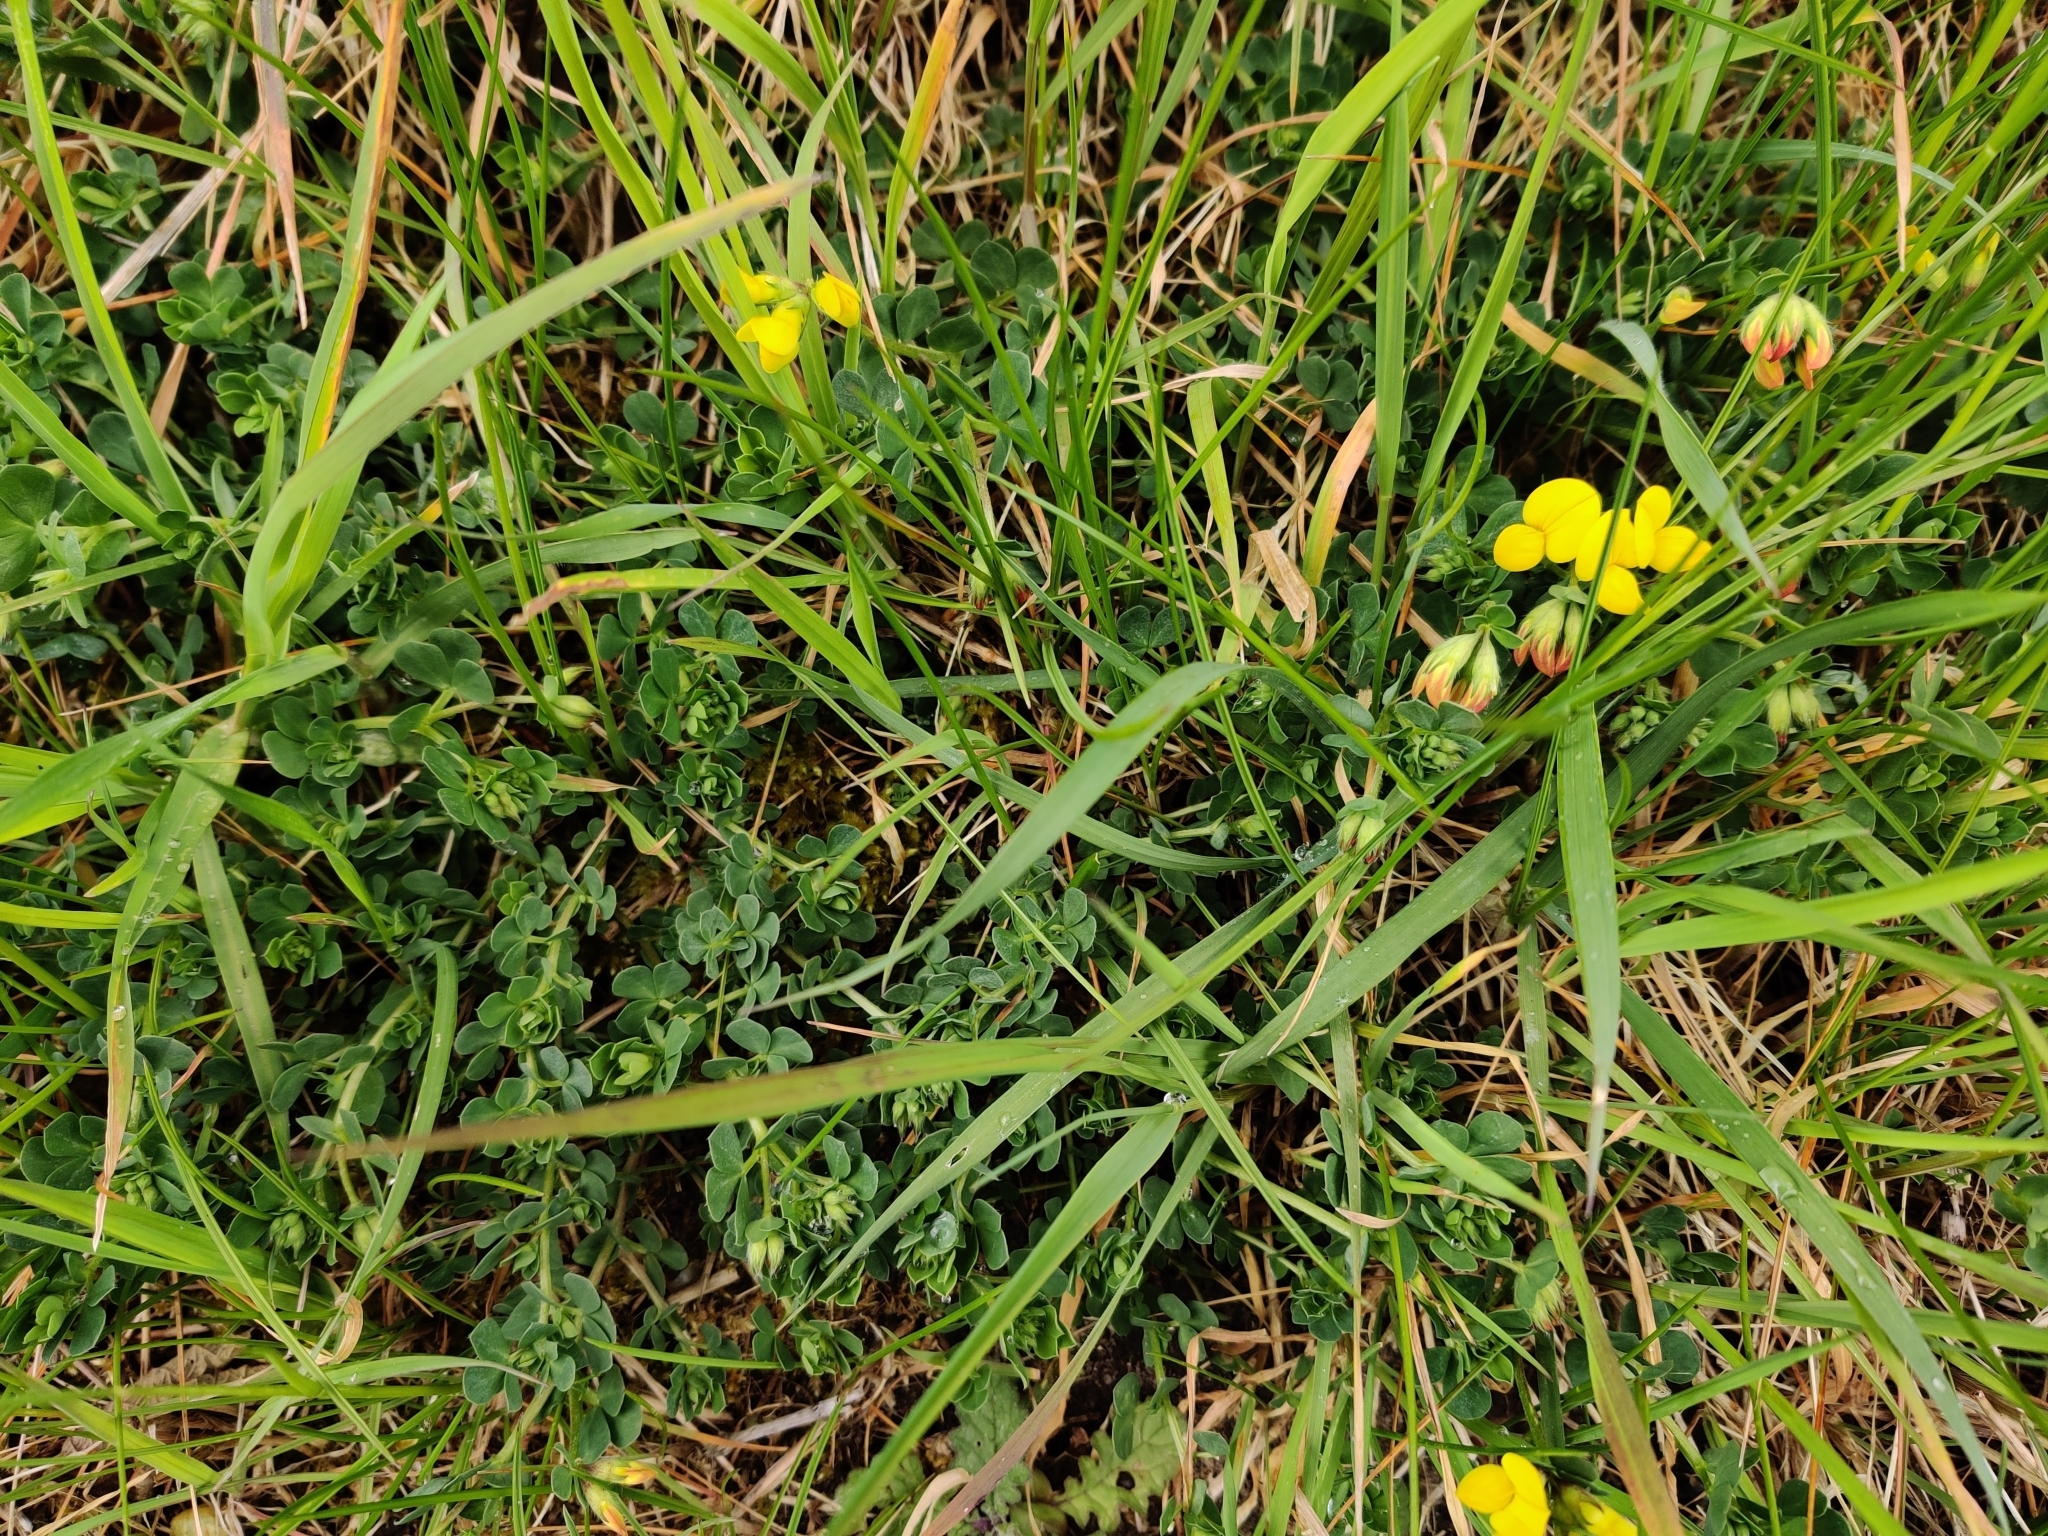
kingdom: Plantae
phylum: Tracheophyta
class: Magnoliopsida
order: Fabales
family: Fabaceae
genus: Lotus
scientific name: Lotus corniculatus
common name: Common bird's-foot-trefoil
